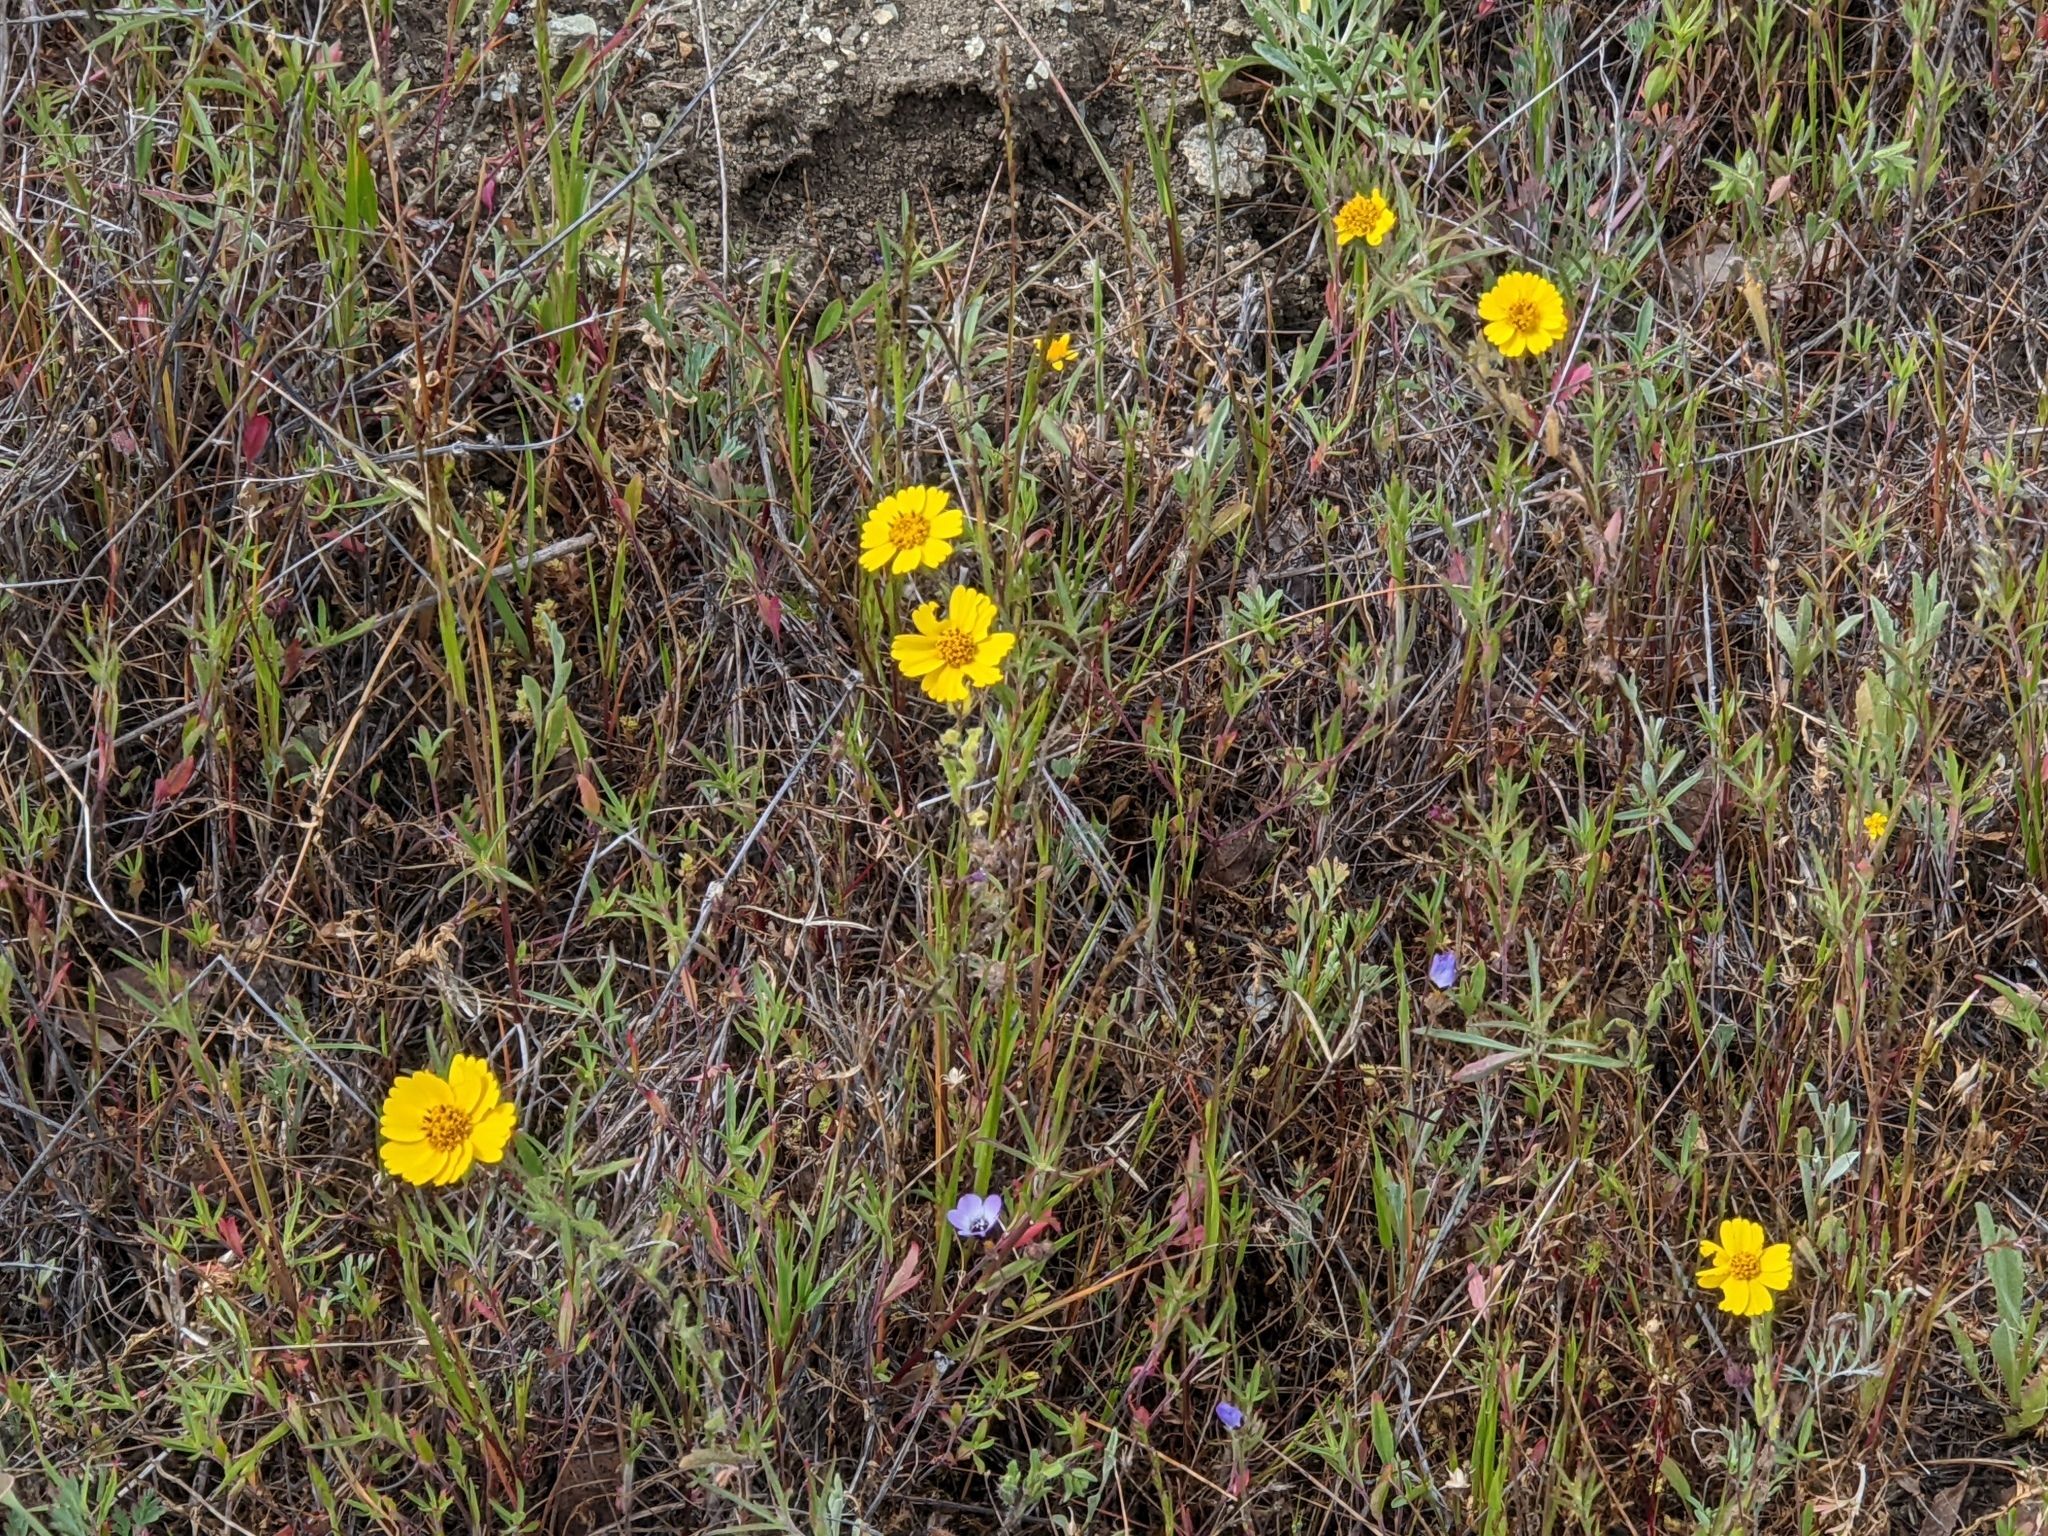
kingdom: Plantae
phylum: Tracheophyta
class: Magnoliopsida
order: Asterales
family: Asteraceae
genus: Layia
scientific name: Layia gaillardioides
